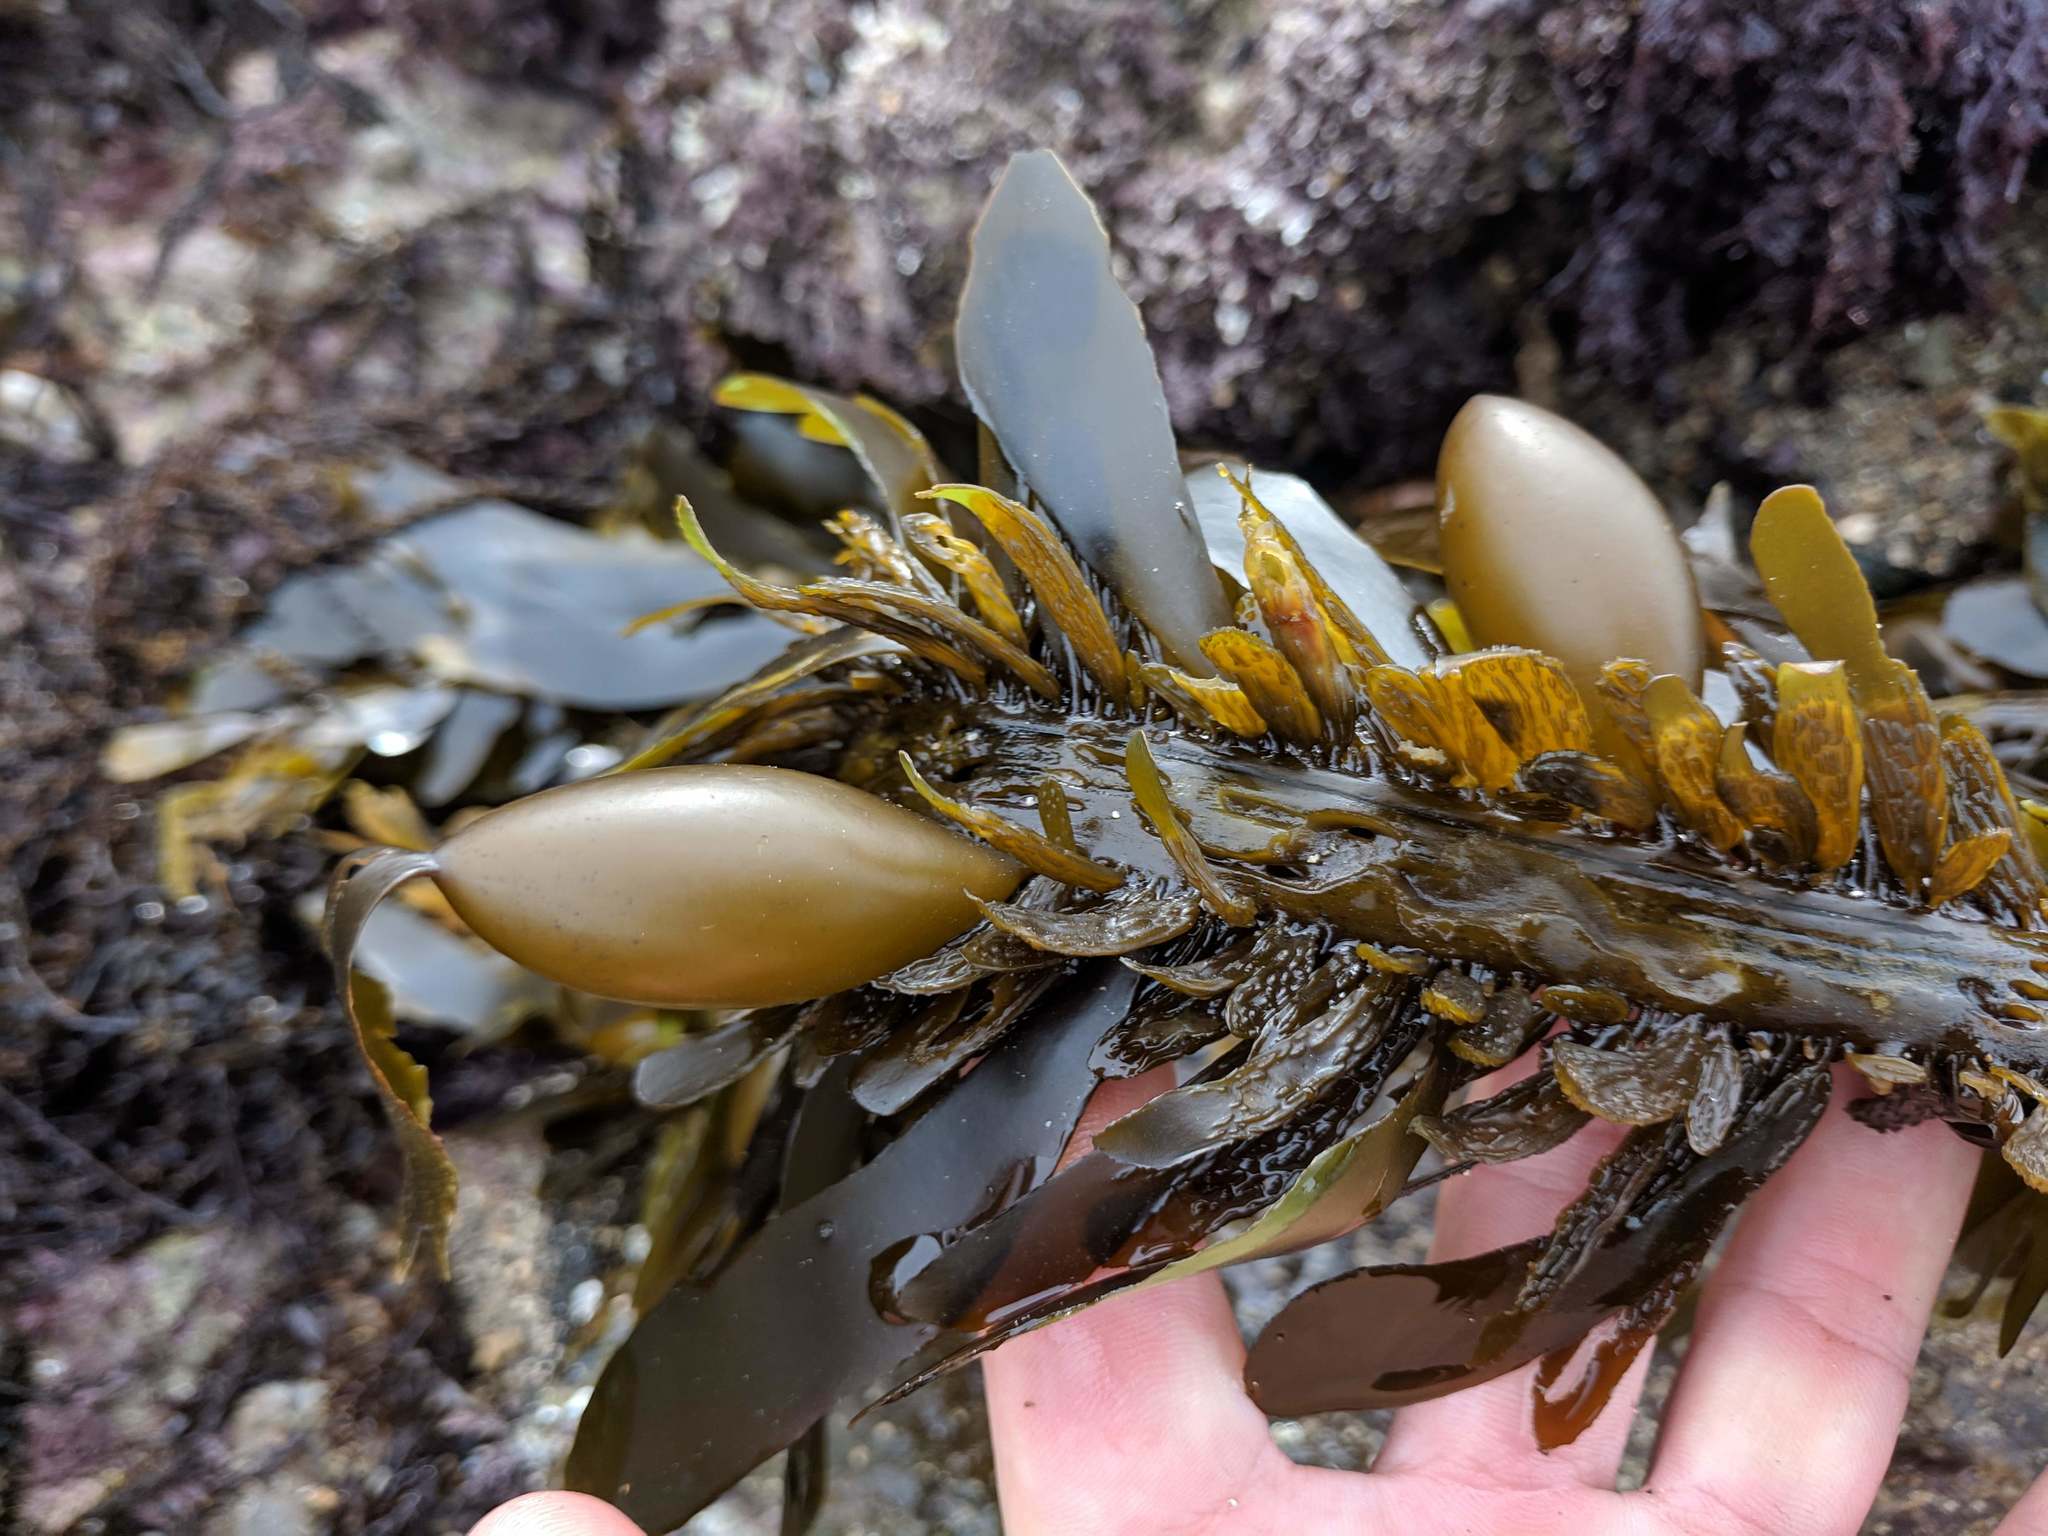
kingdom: Chromista
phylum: Ochrophyta
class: Phaeophyceae
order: Laminariales
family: Lessoniaceae
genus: Egregia
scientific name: Egregia menziesii
